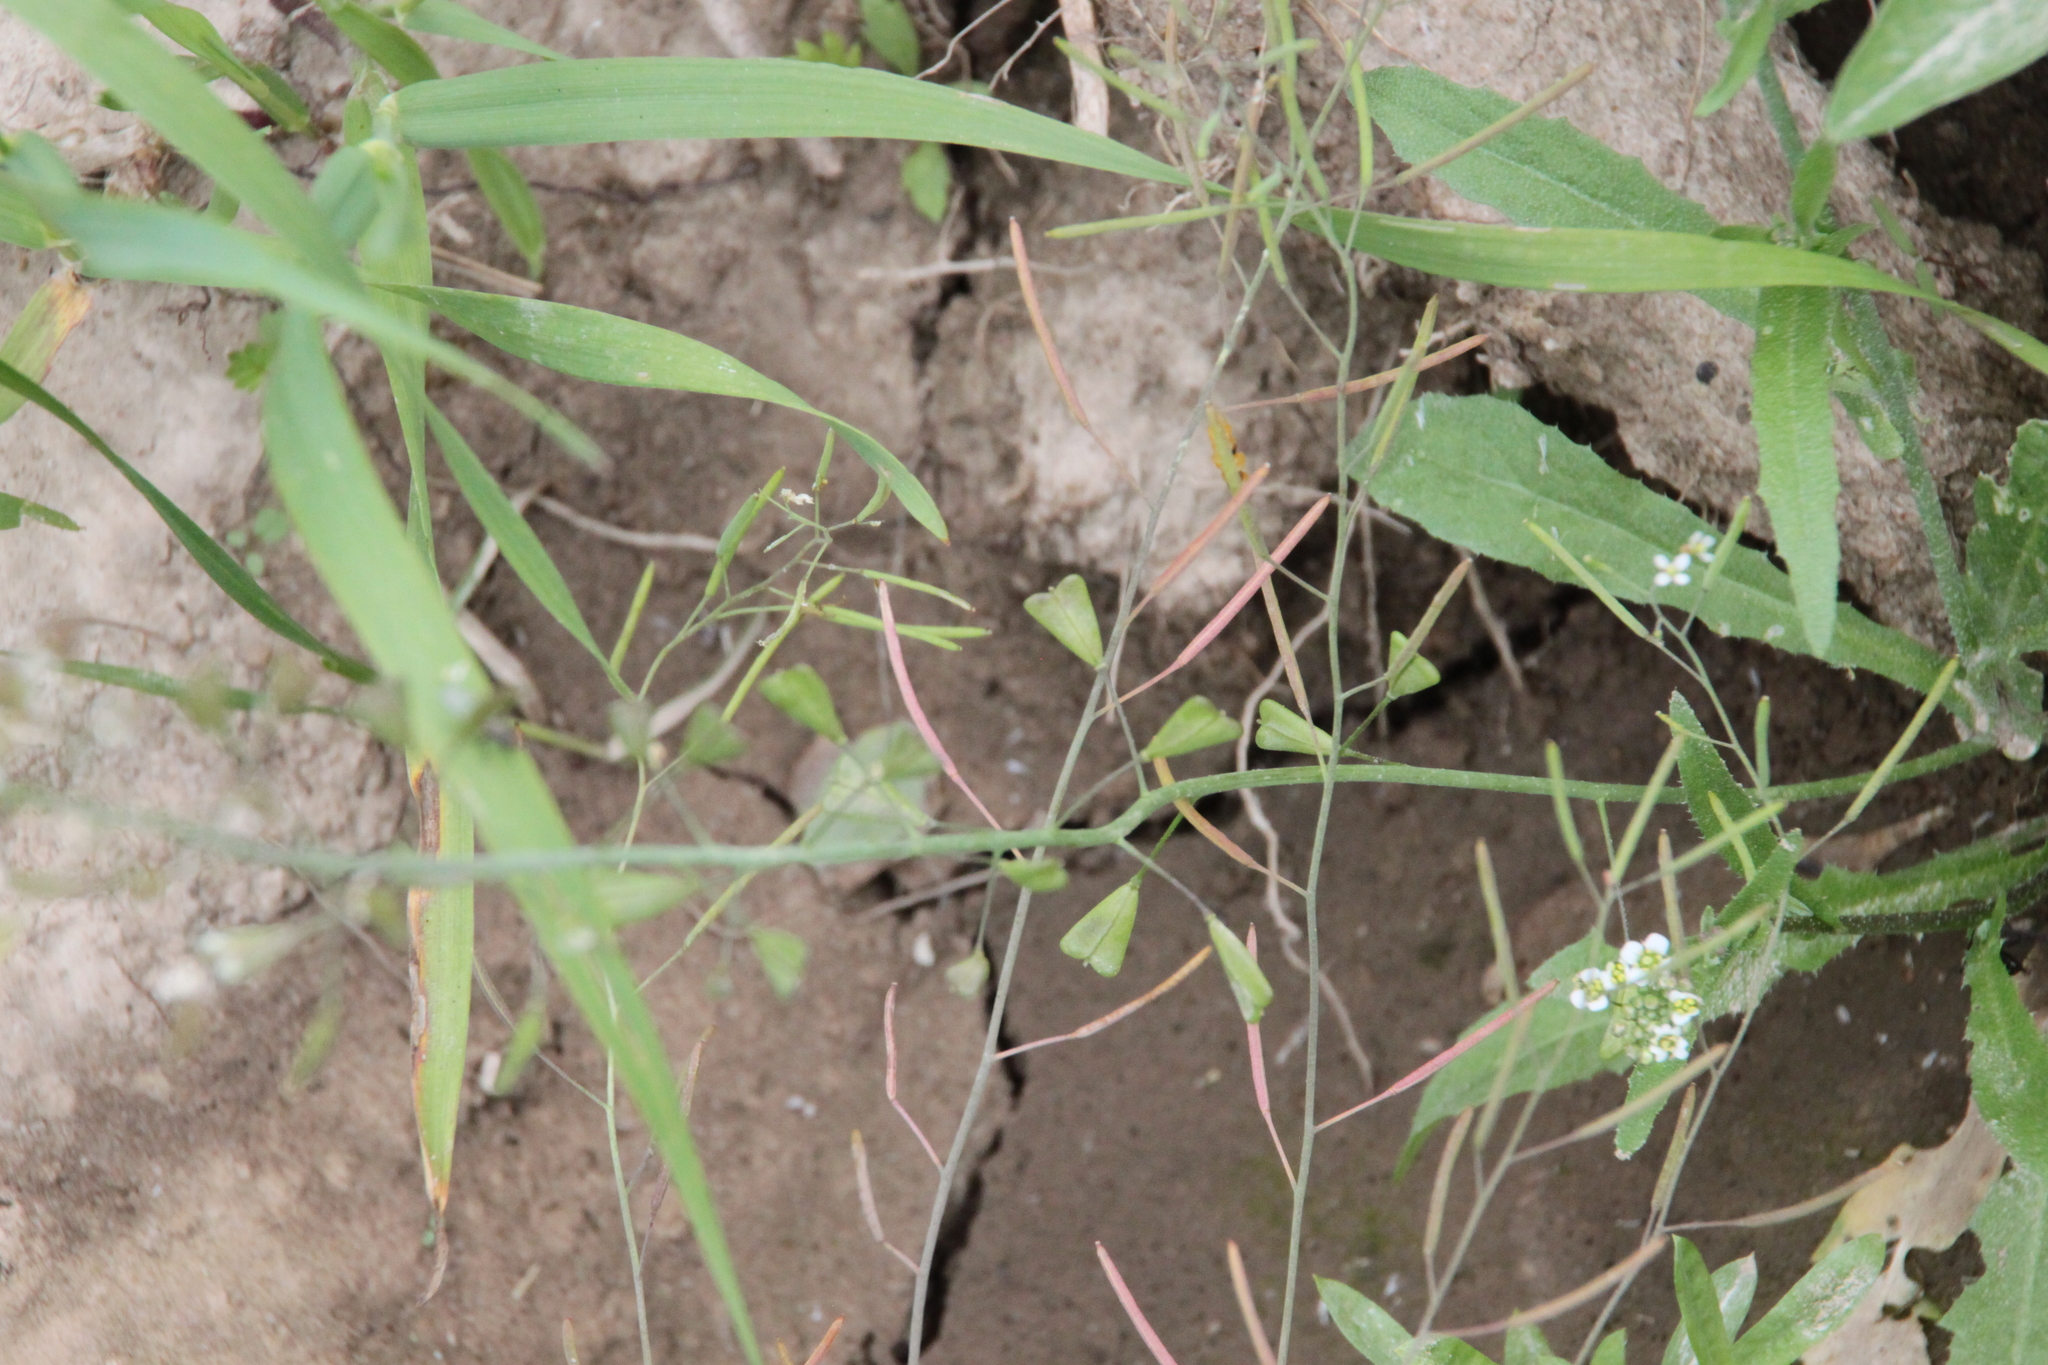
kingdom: Plantae
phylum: Tracheophyta
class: Magnoliopsida
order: Brassicales
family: Brassicaceae
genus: Capsella
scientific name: Capsella bursa-pastoris
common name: Shepherd's purse
